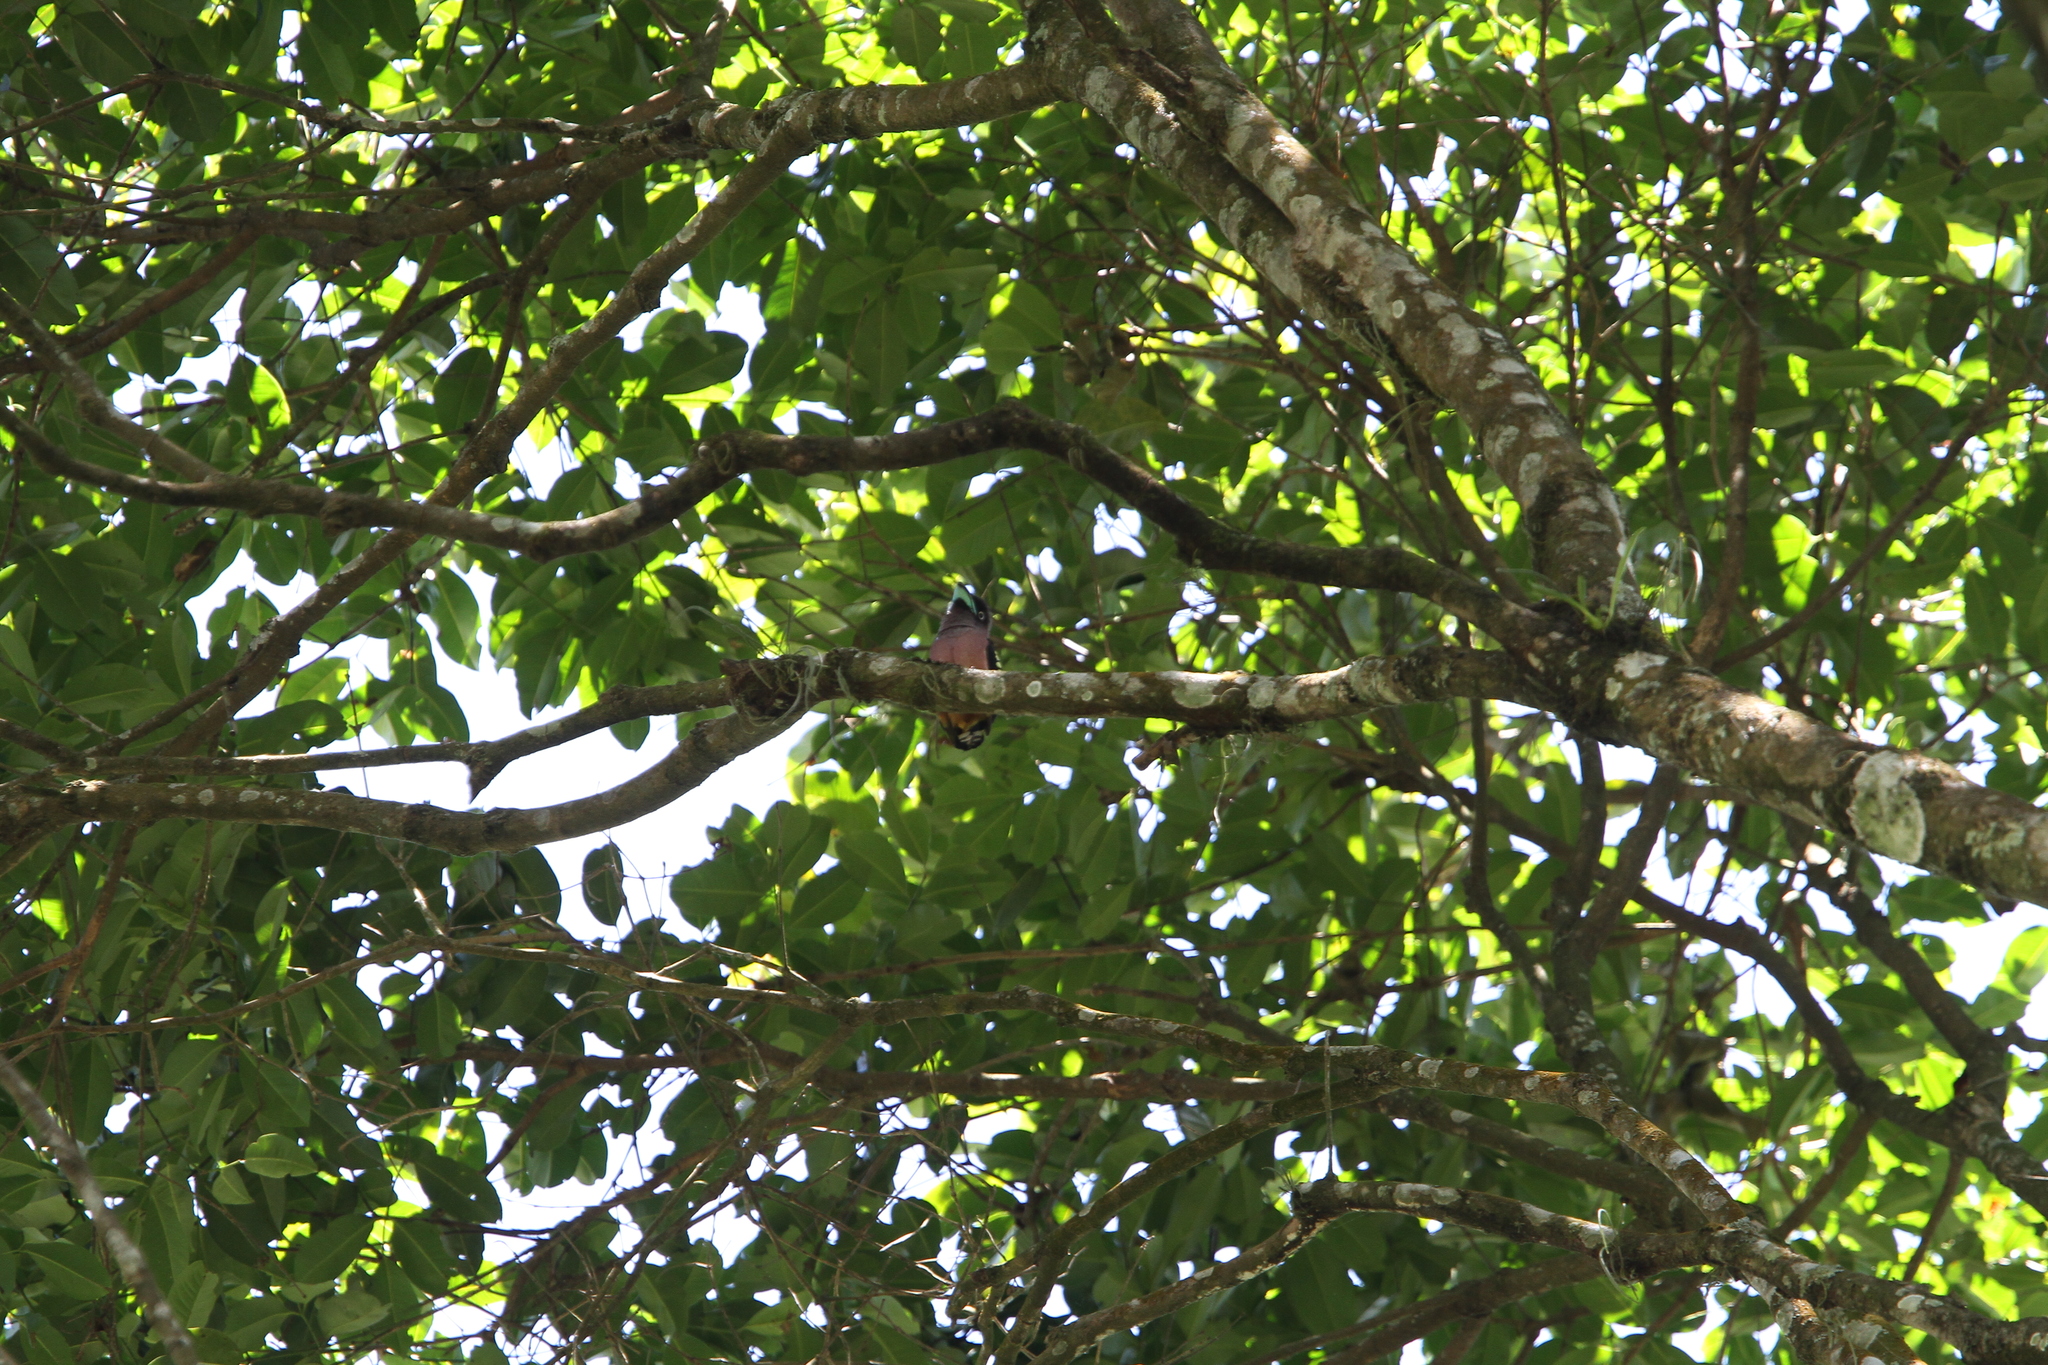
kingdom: Animalia
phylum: Chordata
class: Aves
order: Passeriformes
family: Eurylaimidae
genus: Eurylaimus
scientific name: Eurylaimus javanicus
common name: Banded broadbill
